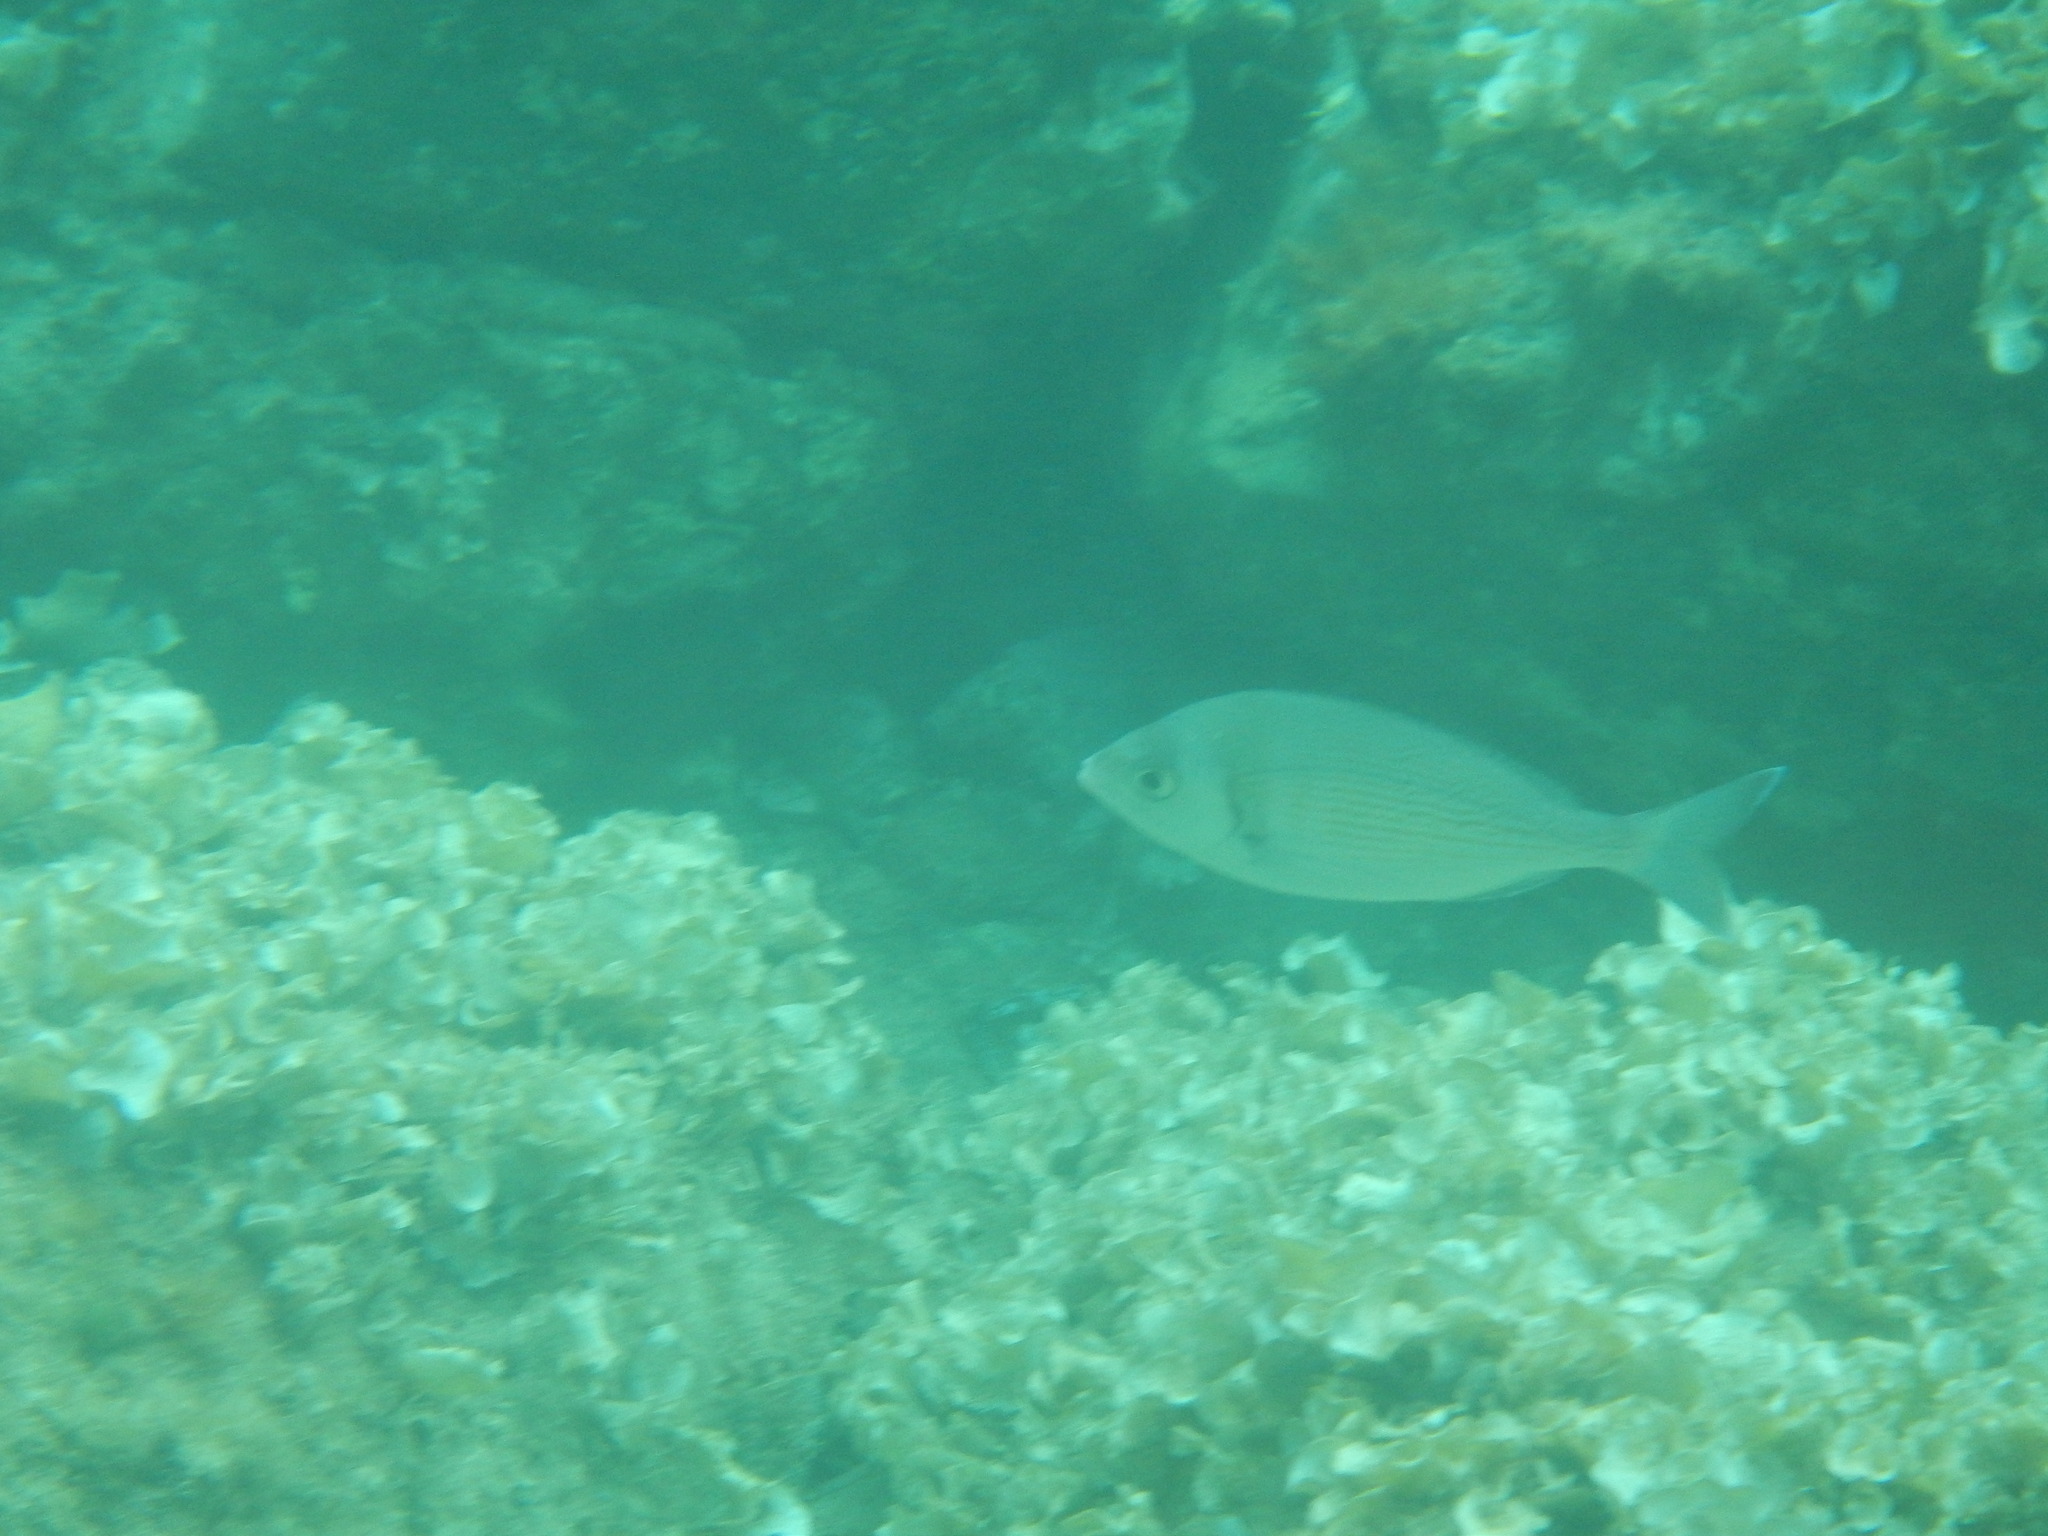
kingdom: Animalia
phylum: Chordata
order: Perciformes
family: Sparidae
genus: Spondyliosoma
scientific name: Spondyliosoma cantharus
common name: Black seabream
